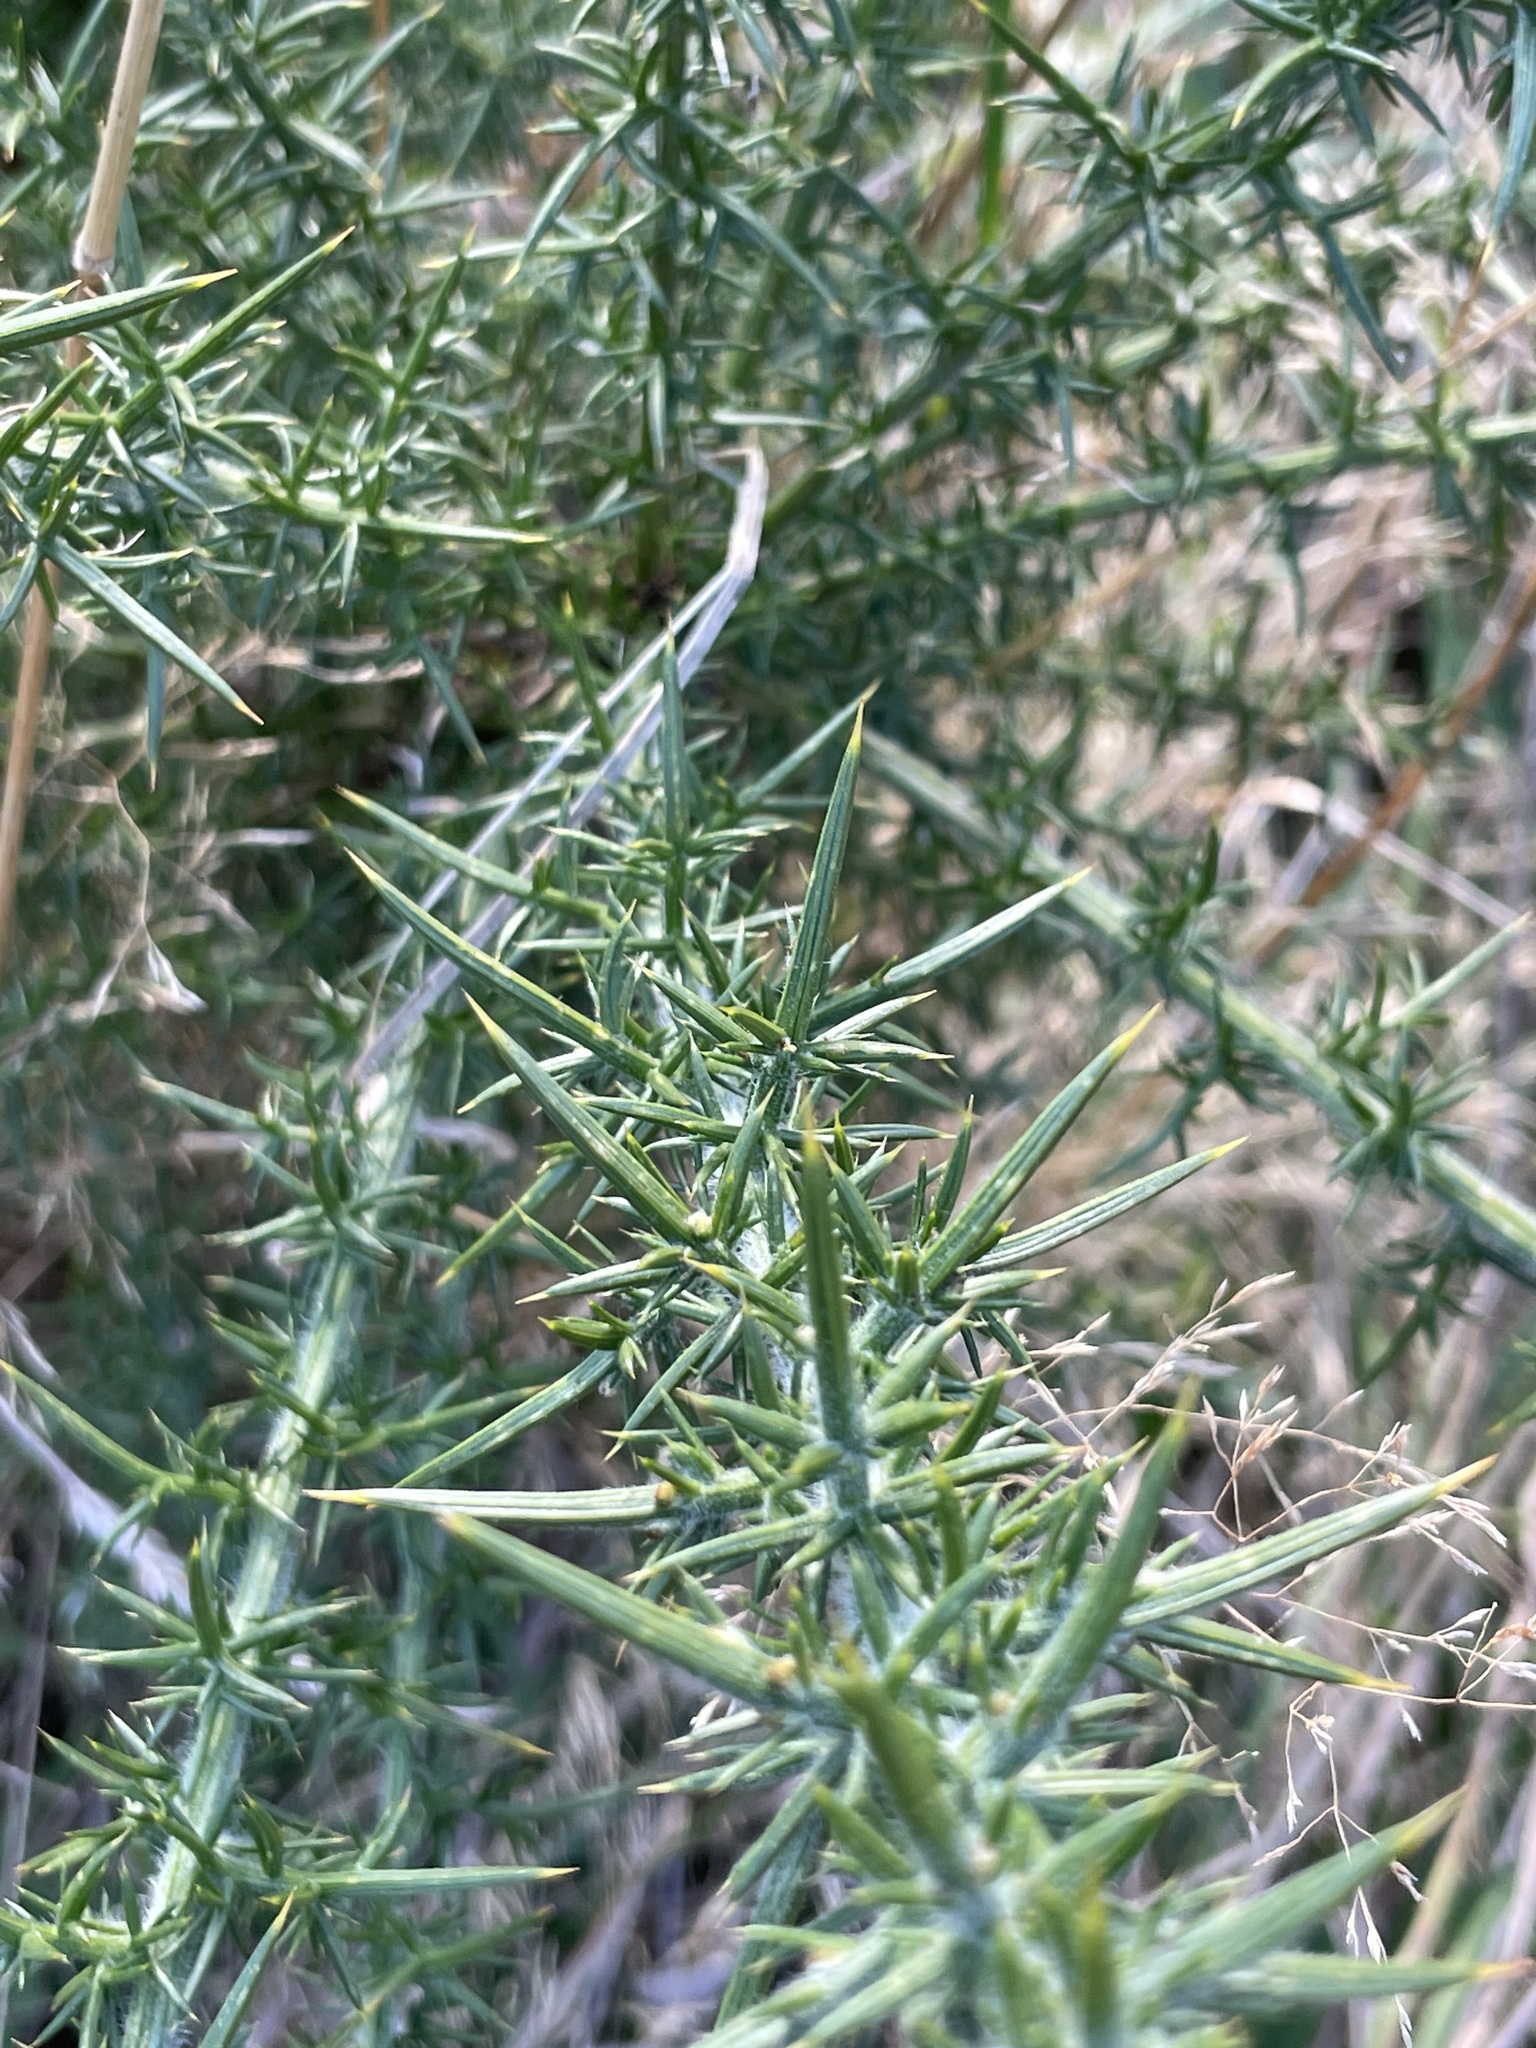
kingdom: Plantae
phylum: Tracheophyta
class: Magnoliopsida
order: Fabales
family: Fabaceae
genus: Ulex
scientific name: Ulex europaeus
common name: Common gorse
